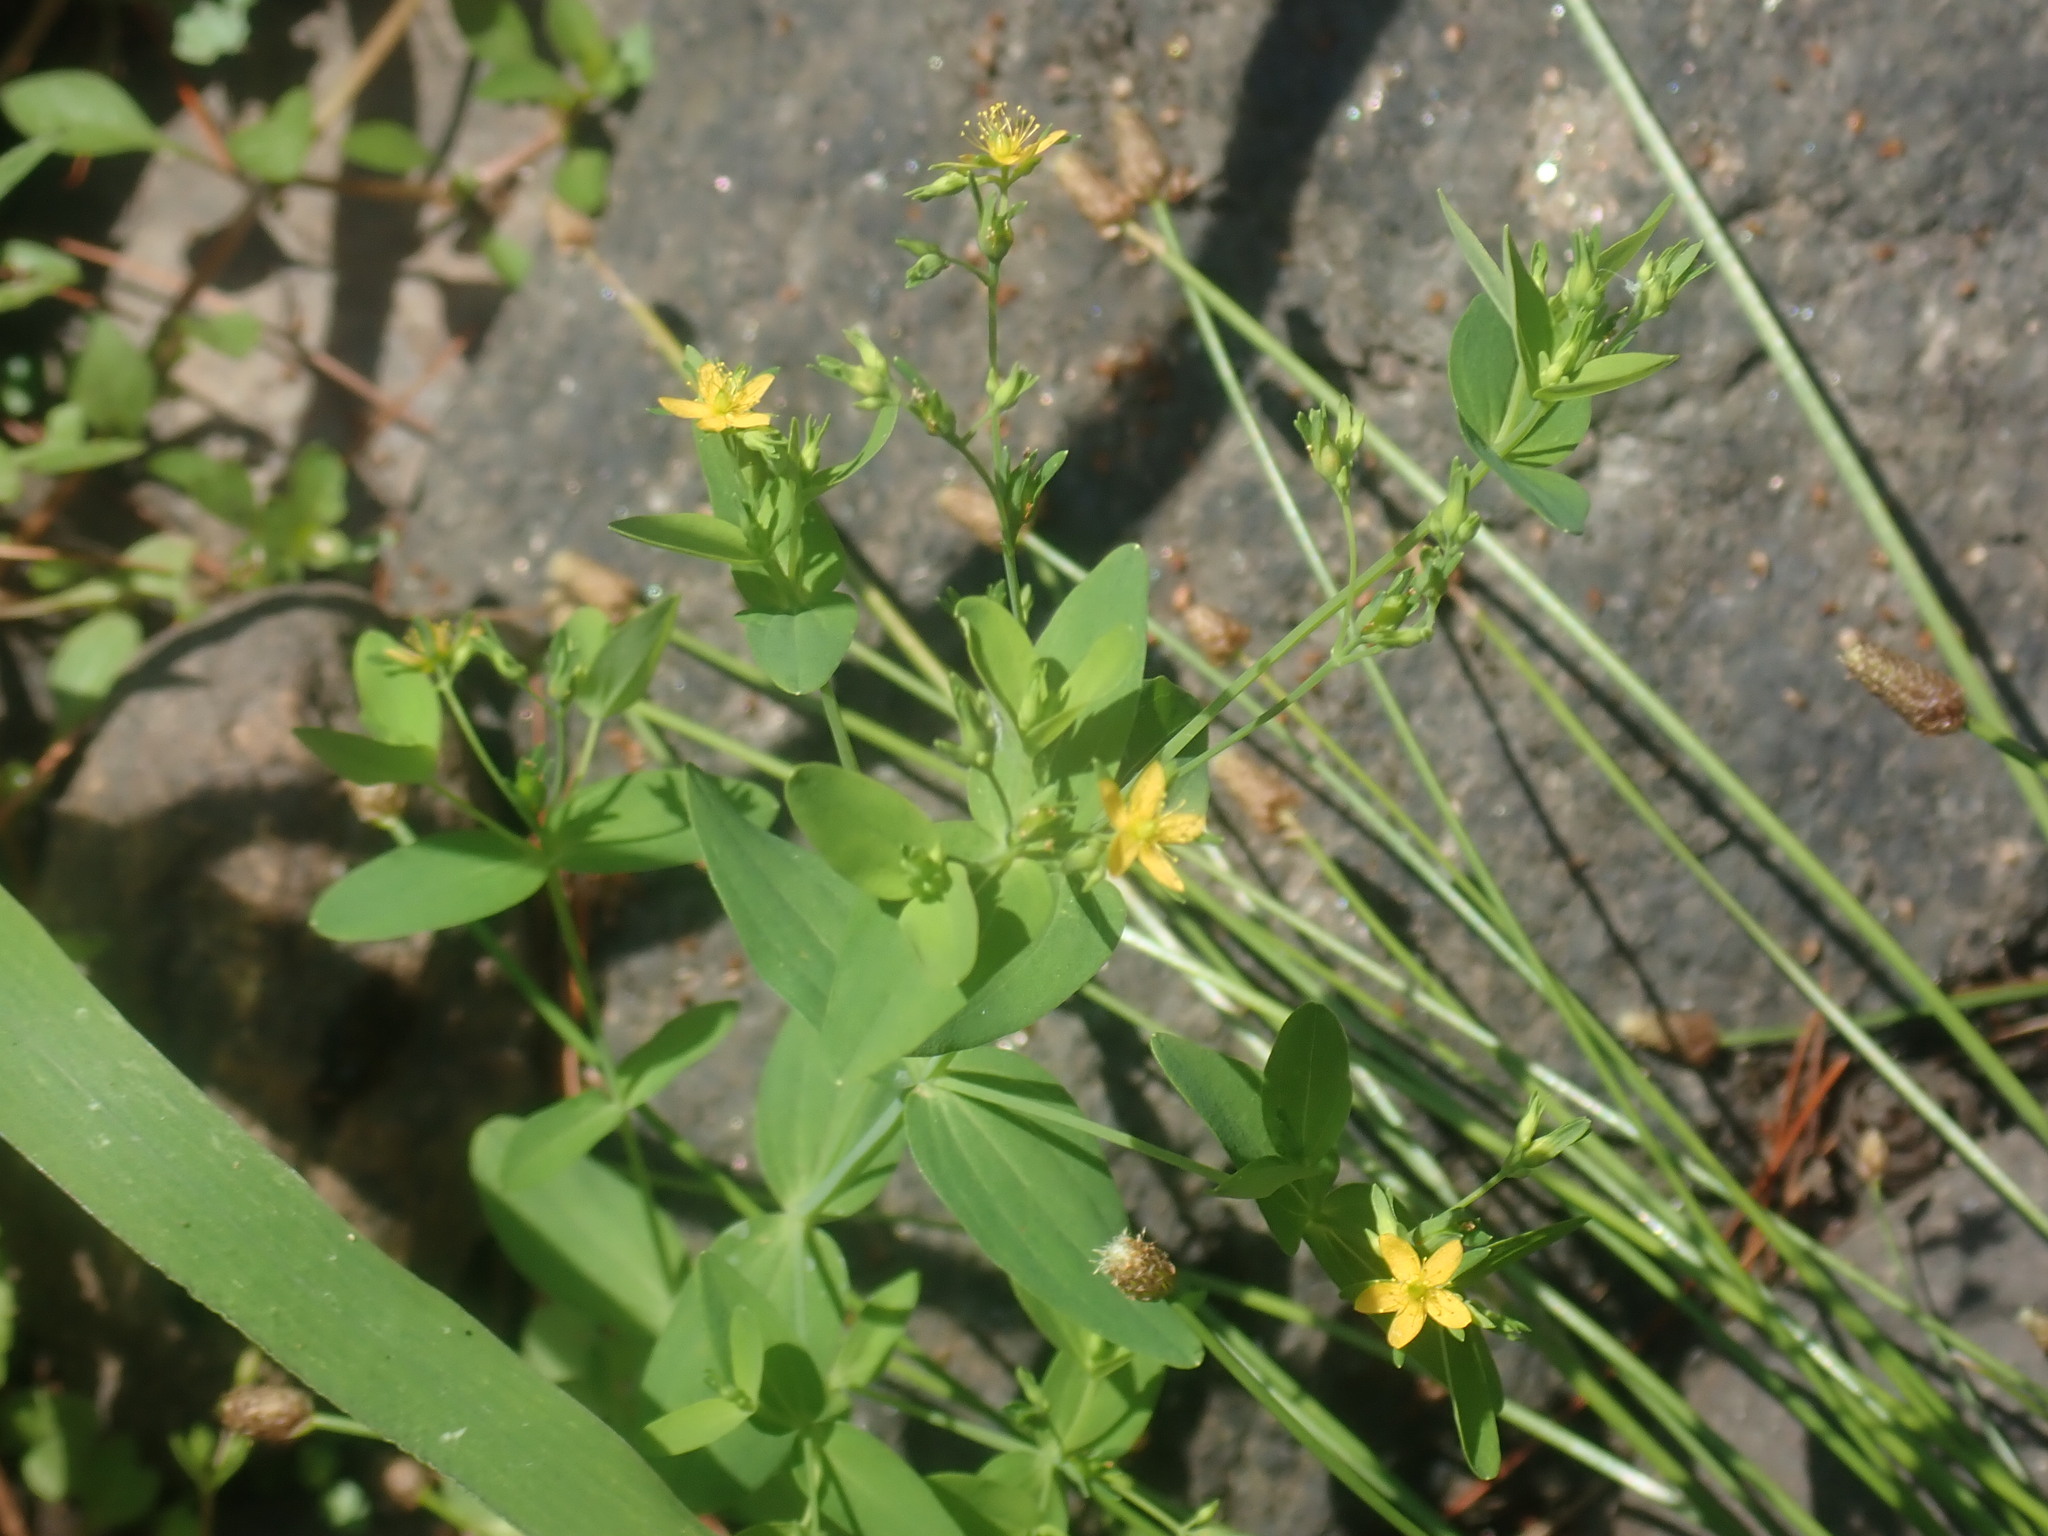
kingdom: Plantae
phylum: Tracheophyta
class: Magnoliopsida
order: Malpighiales
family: Hypericaceae
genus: Hypericum
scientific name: Hypericum mutilum
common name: Dwarf st. john's-wort
